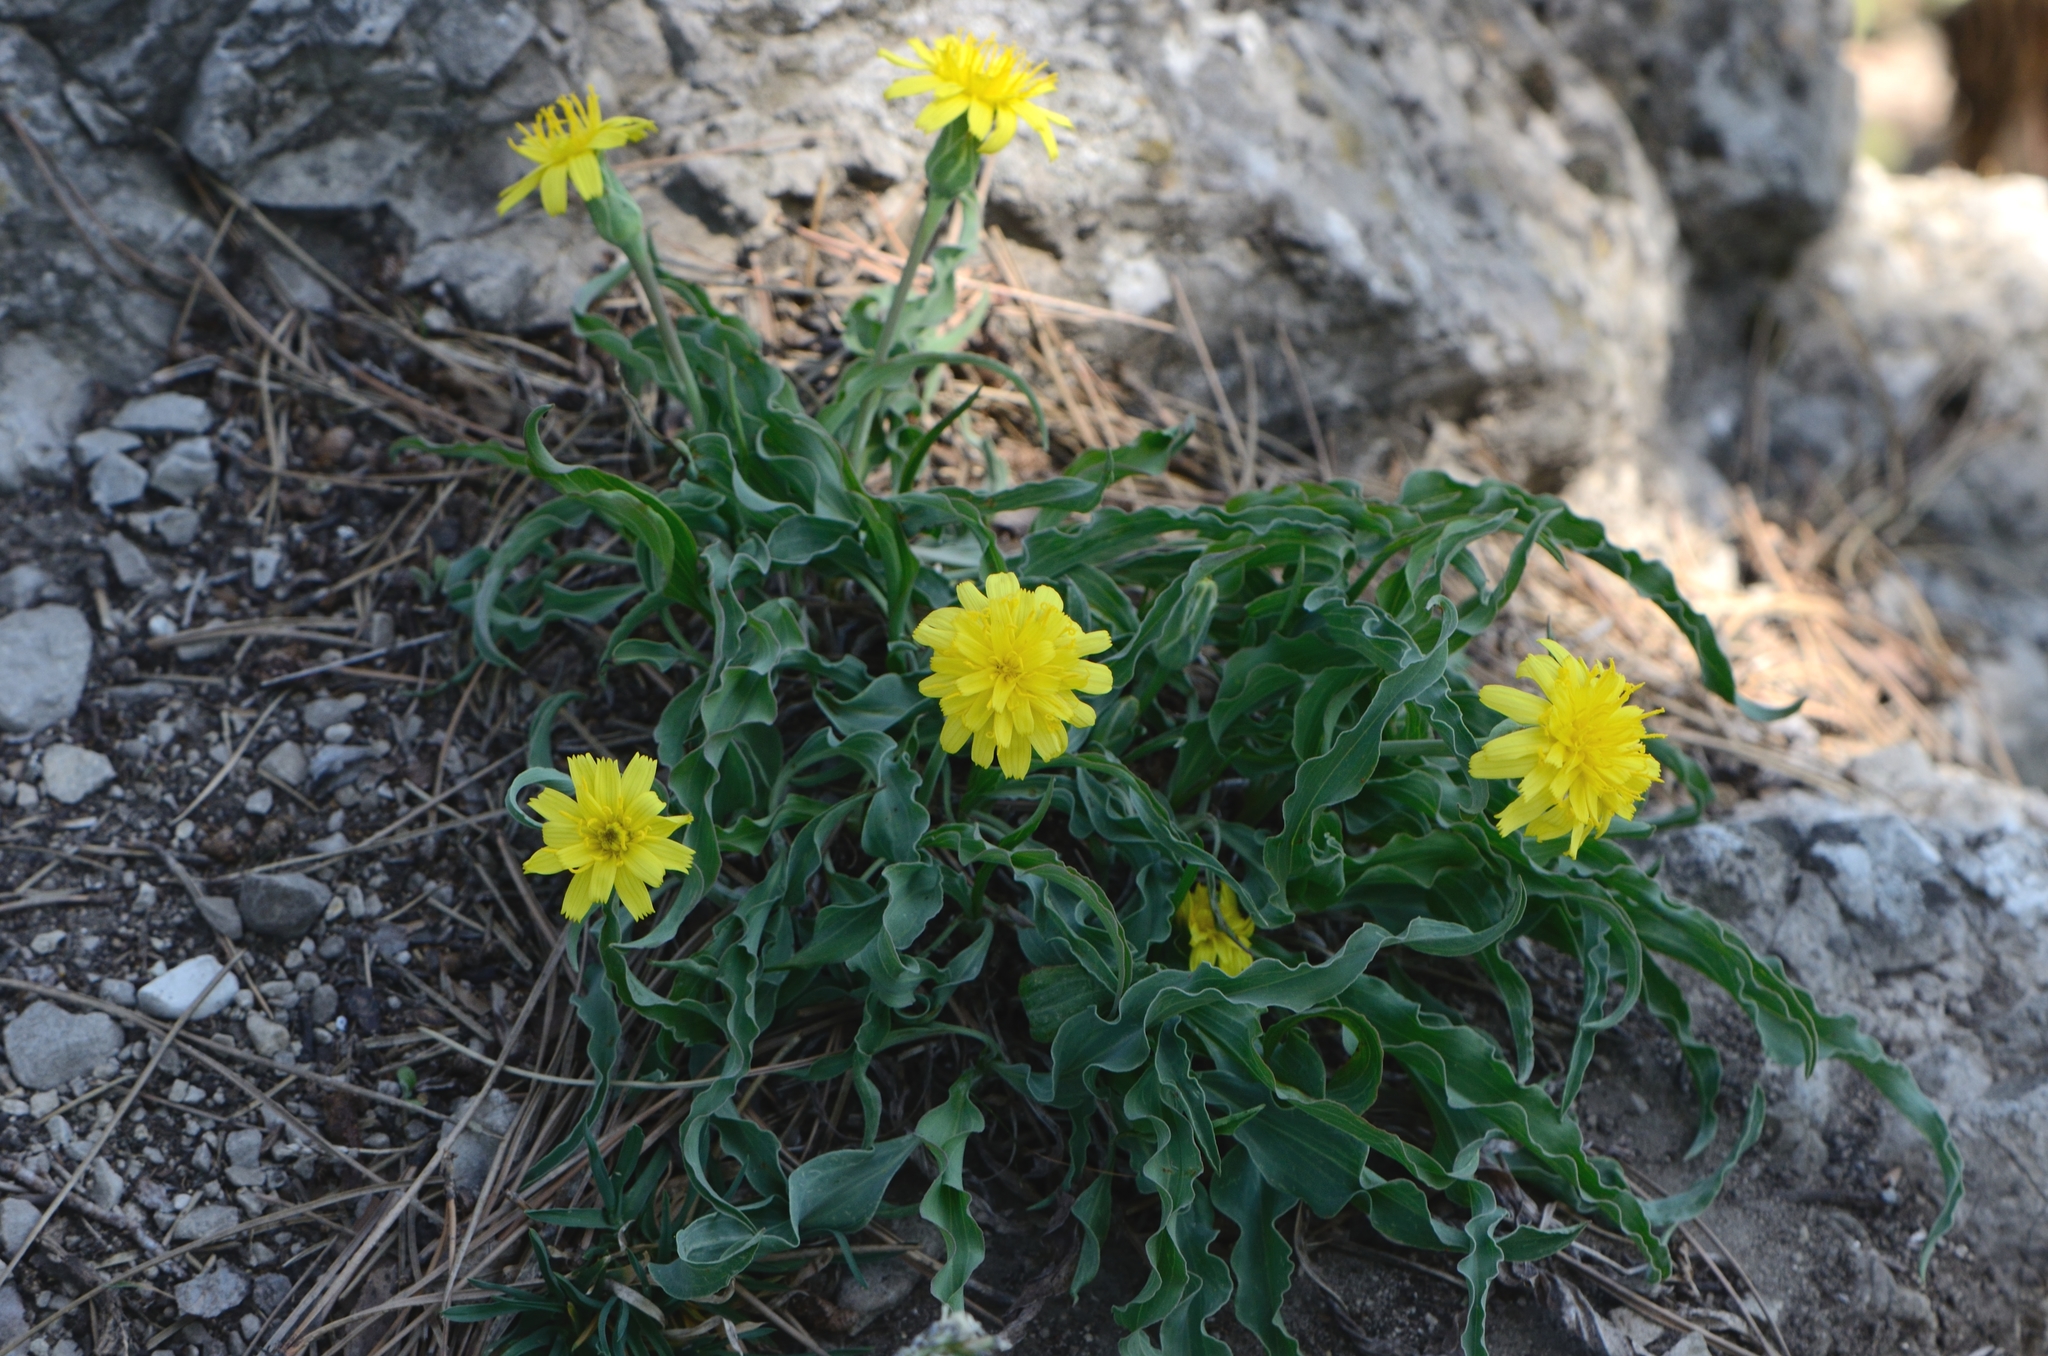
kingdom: Plantae
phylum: Tracheophyta
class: Magnoliopsida
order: Asterales
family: Asteraceae
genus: Takhtajaniantha
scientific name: Takhtajaniantha austriaca
